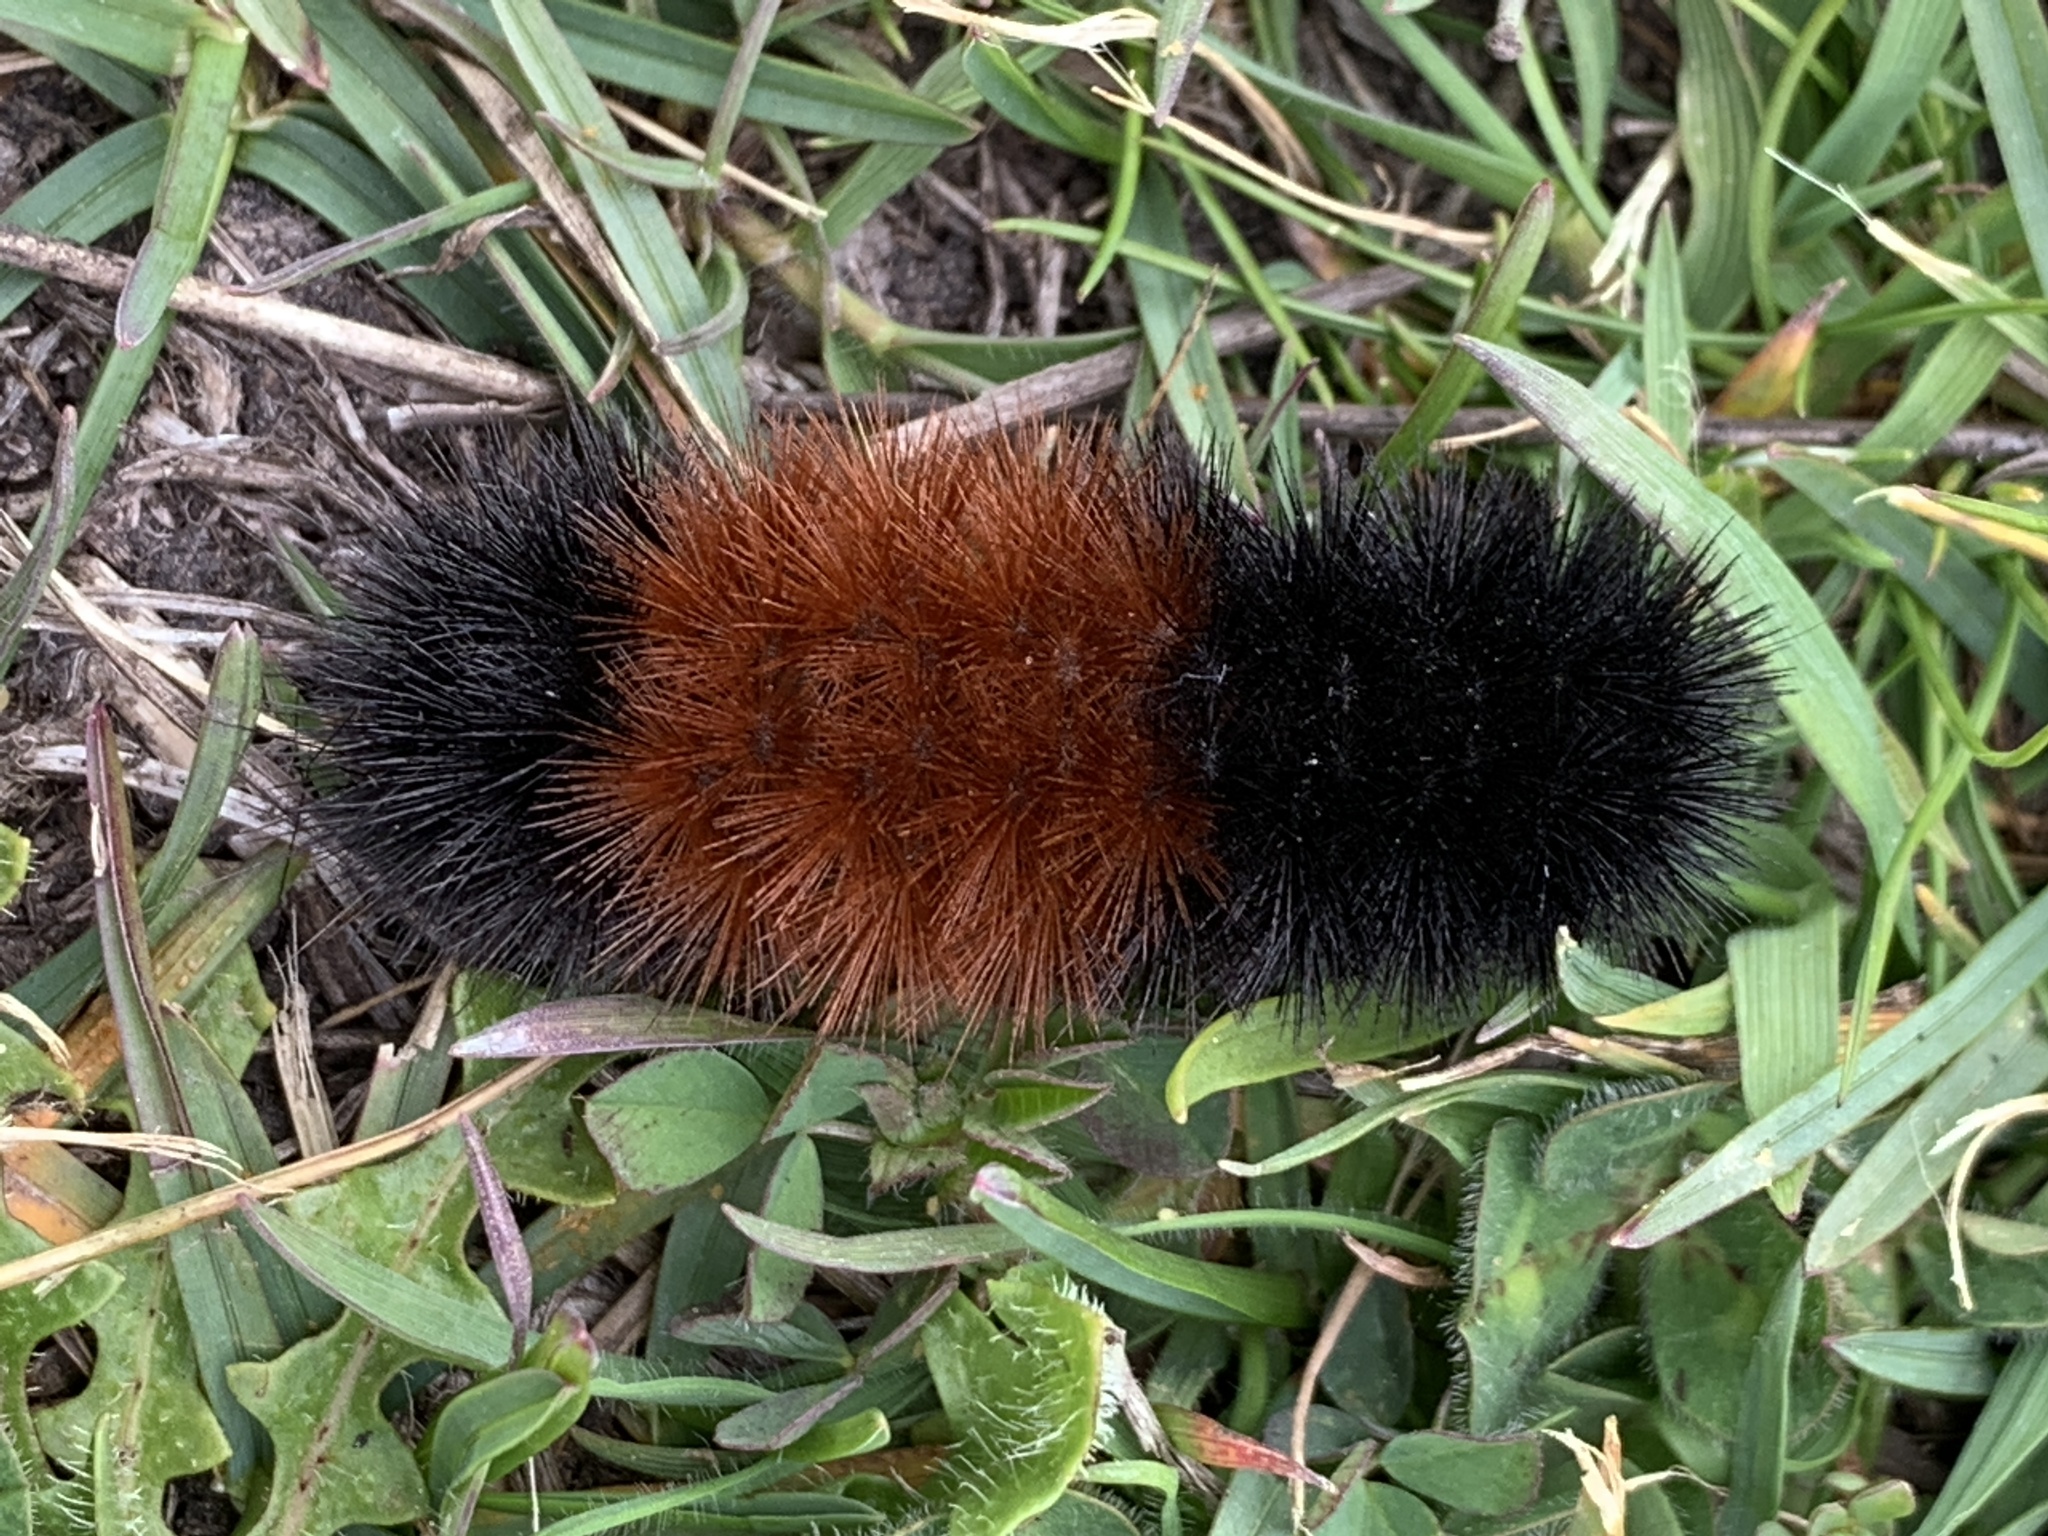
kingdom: Animalia
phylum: Arthropoda
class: Insecta
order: Lepidoptera
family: Erebidae
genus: Pyrrharctia
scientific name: Pyrrharctia isabella
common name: Isabella tiger moth
